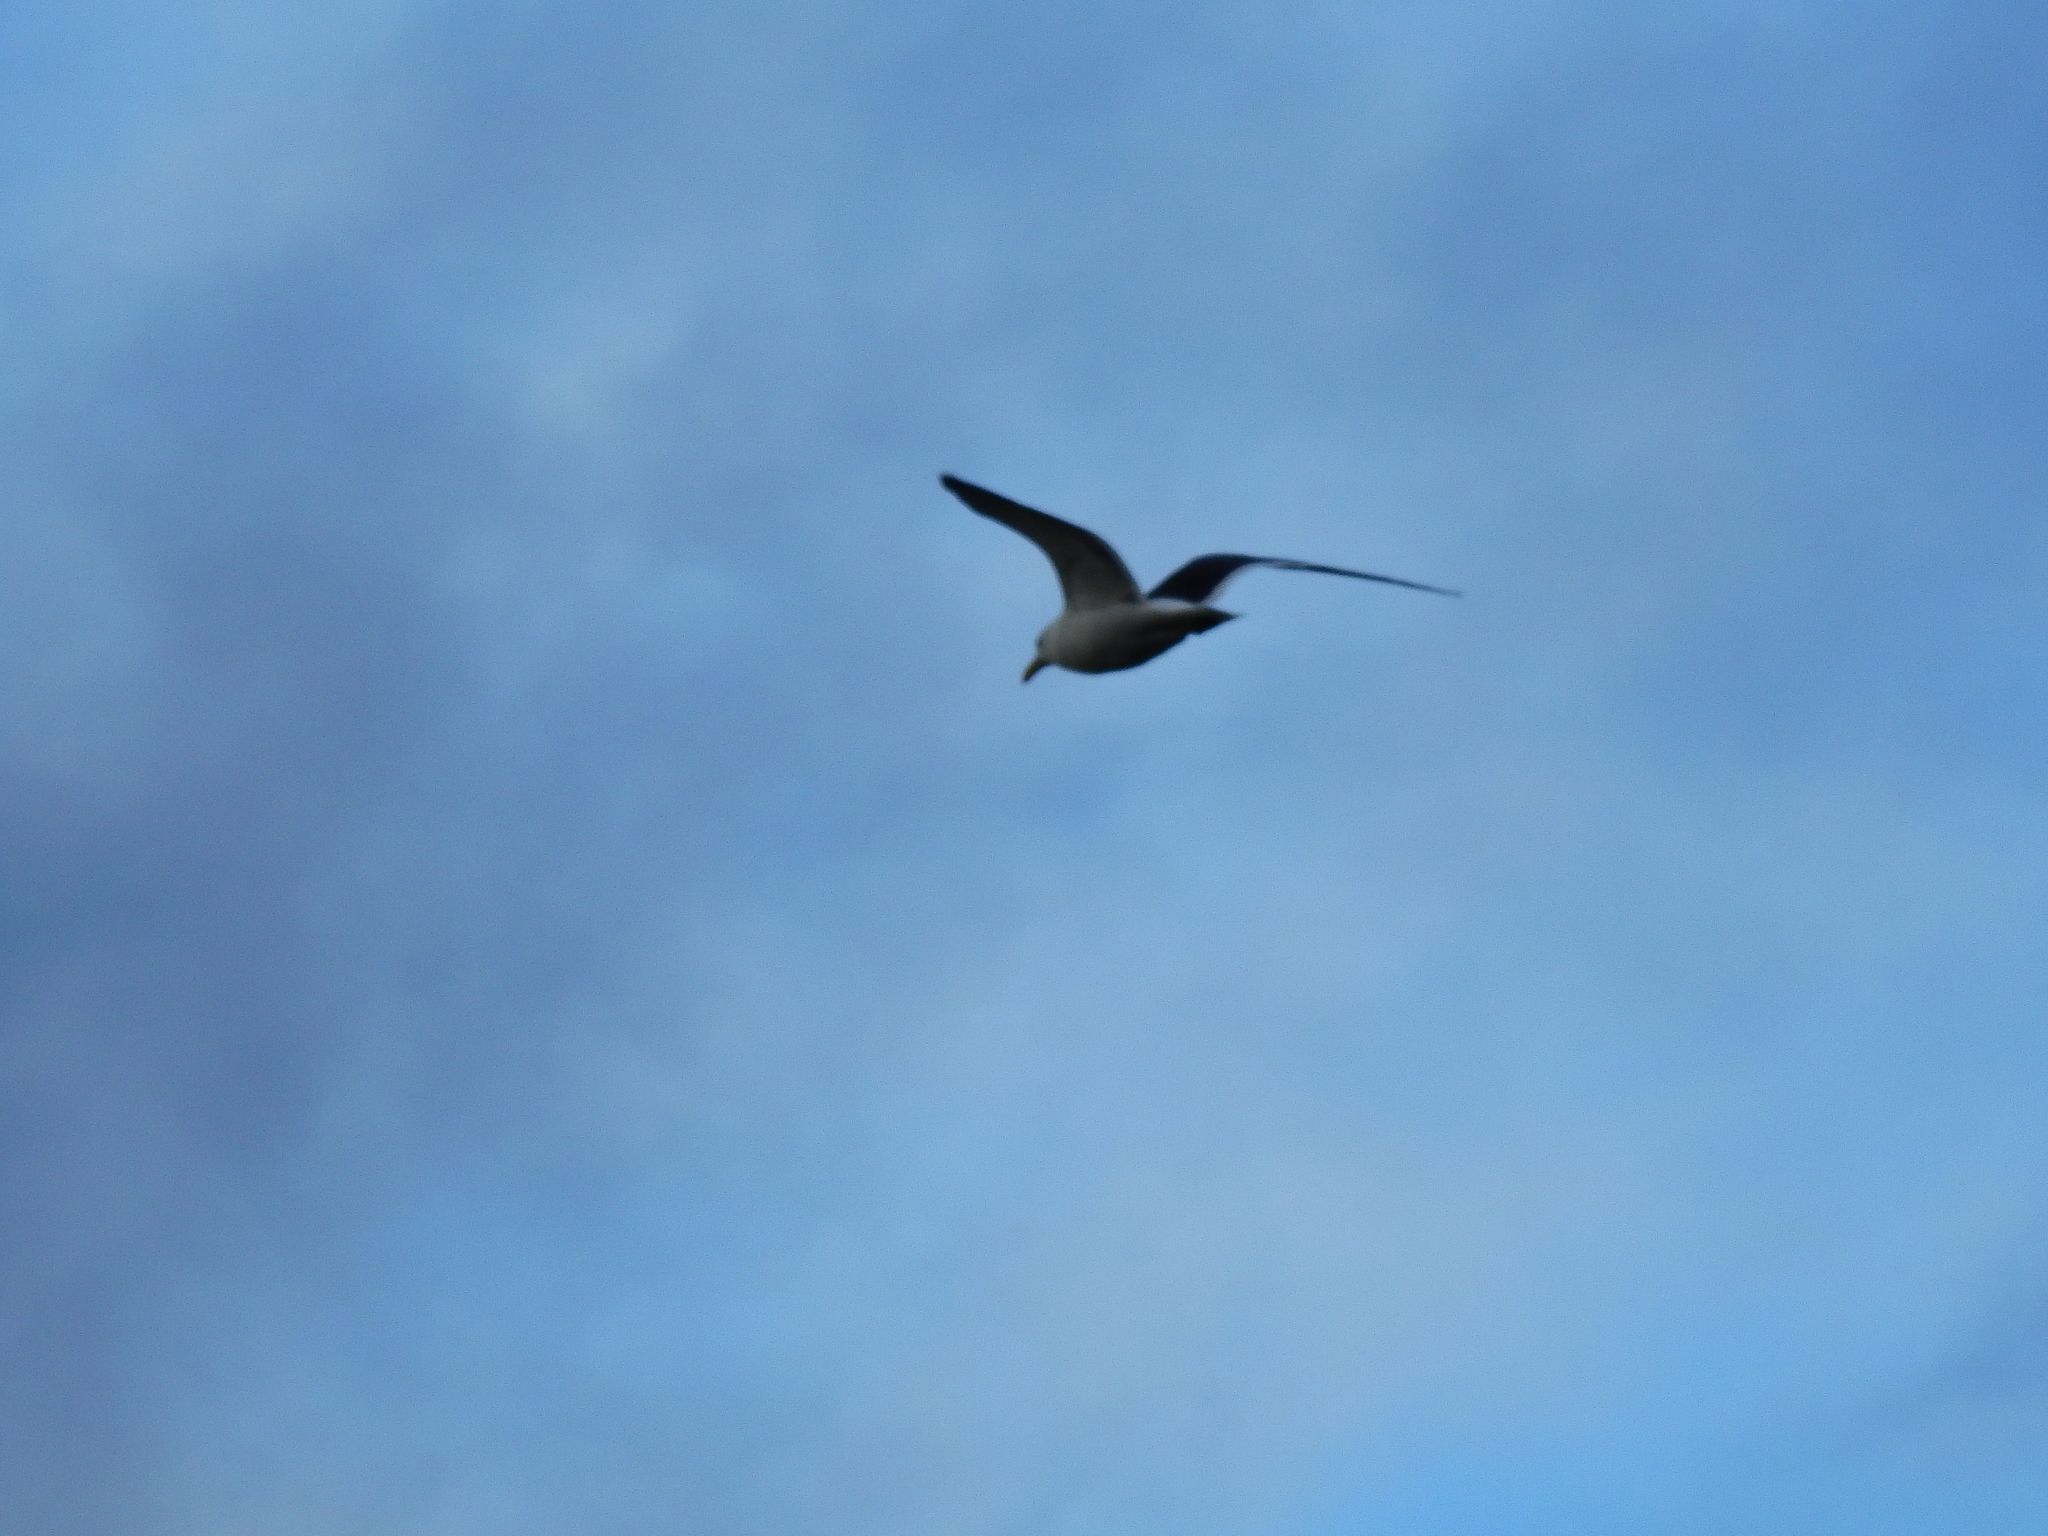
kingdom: Animalia
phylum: Chordata
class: Aves
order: Charadriiformes
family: Laridae
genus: Larus
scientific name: Larus dominicanus
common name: Kelp gull
